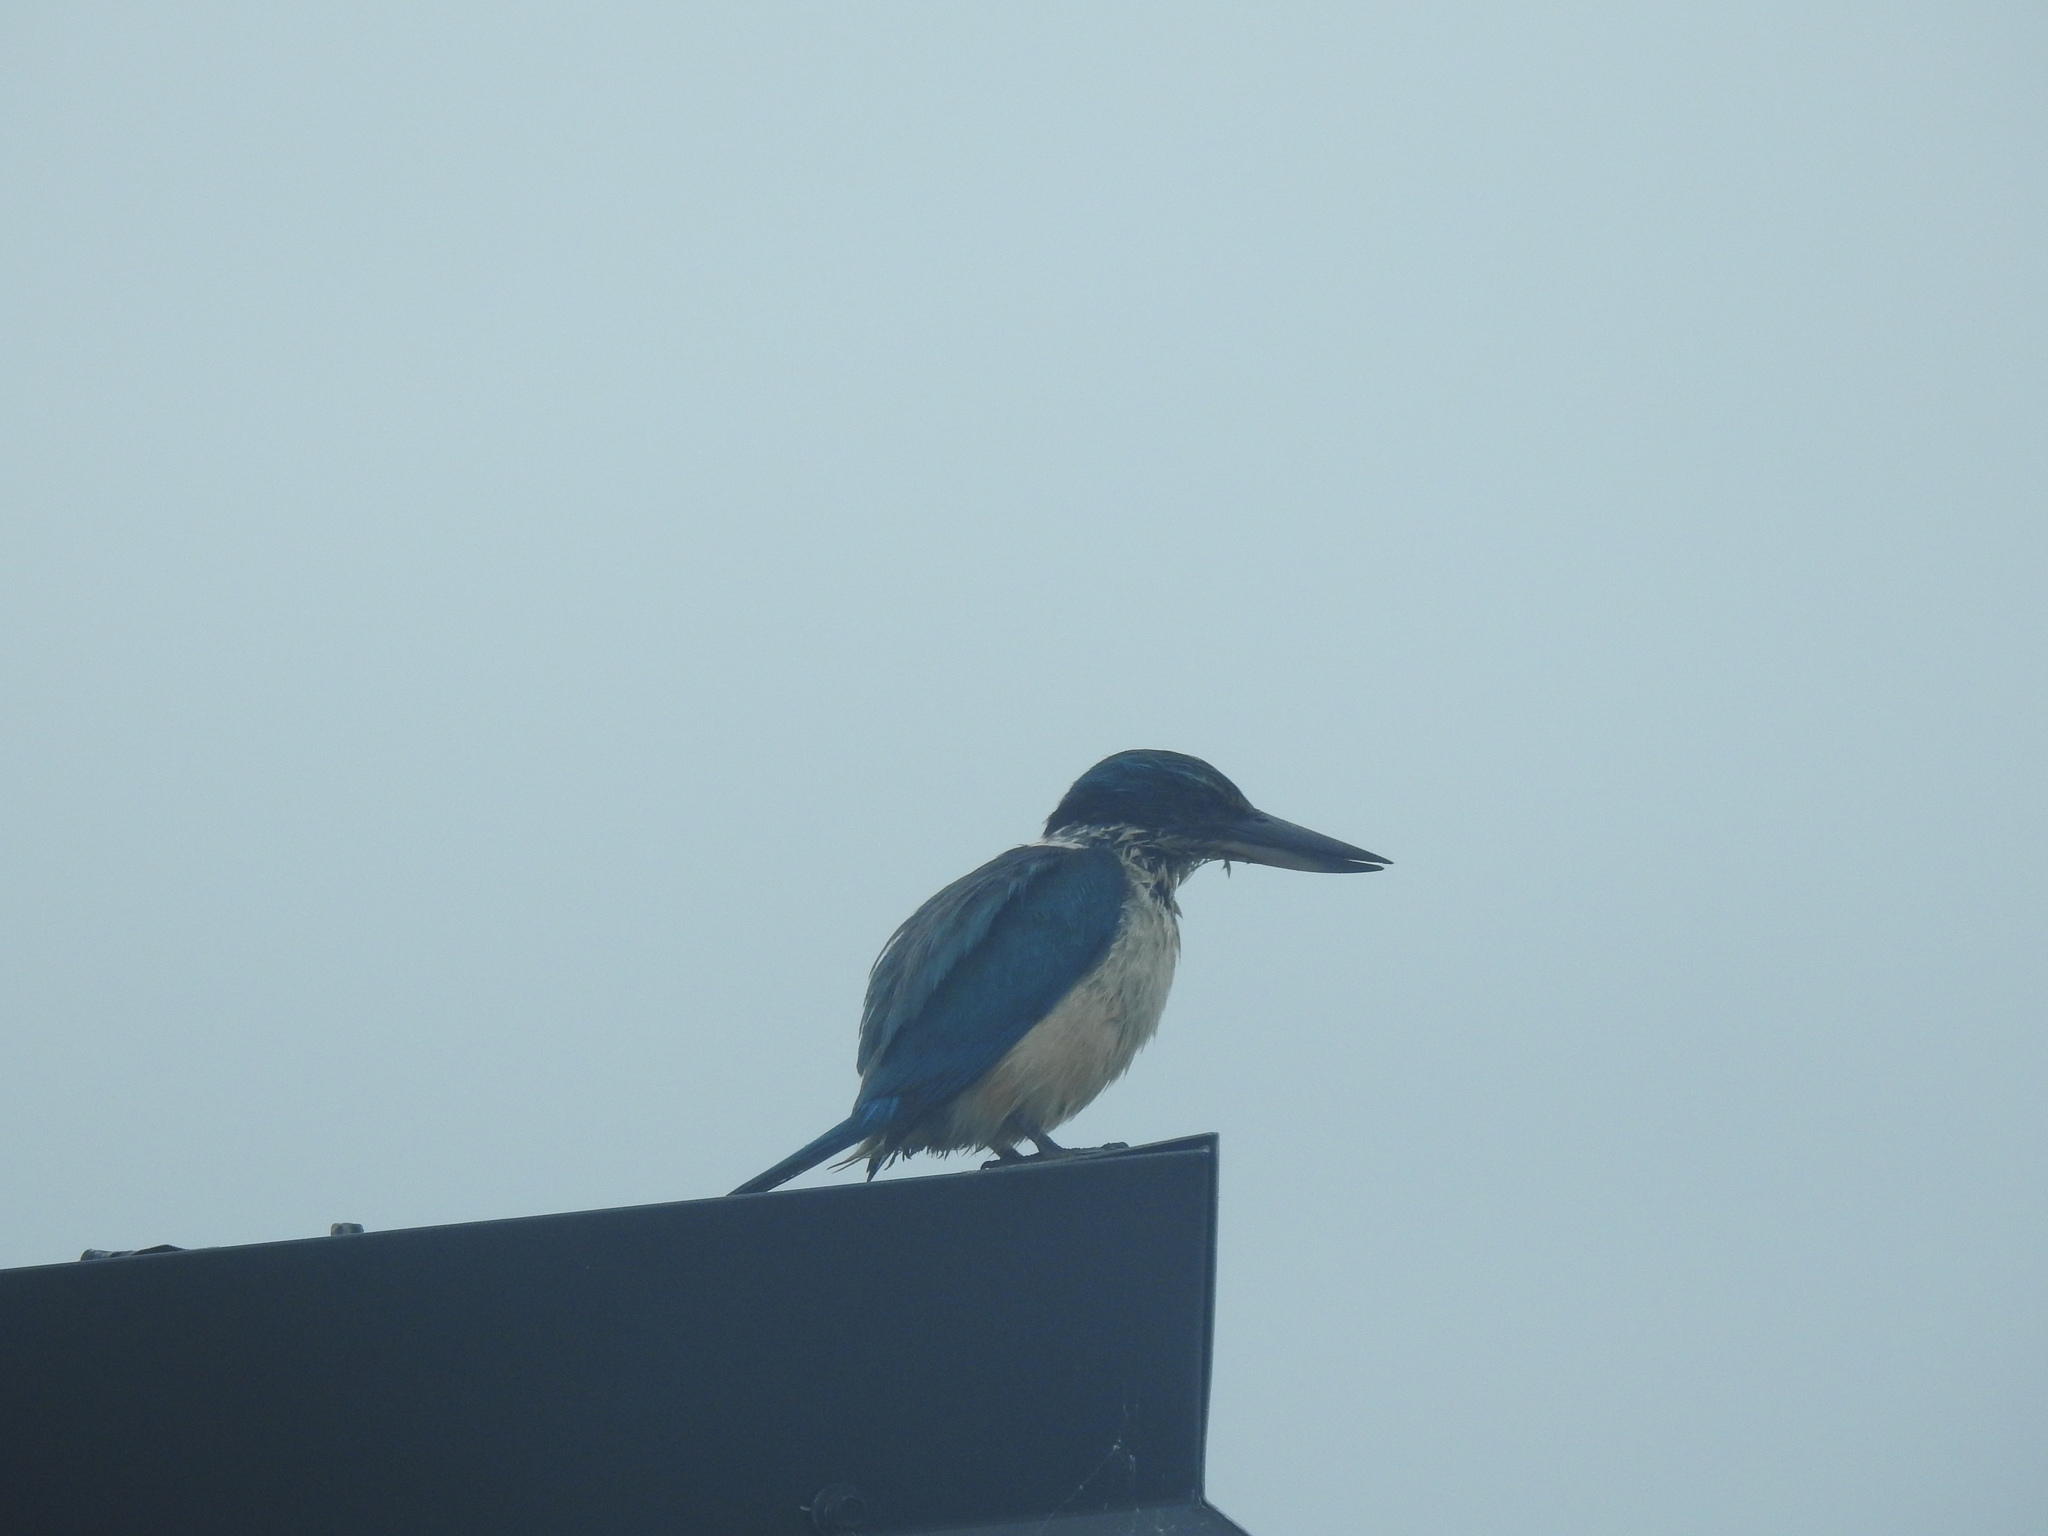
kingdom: Animalia
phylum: Chordata
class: Aves
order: Coraciiformes
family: Alcedinidae
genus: Todiramphus
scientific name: Todiramphus sanctus
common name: Sacred kingfisher
